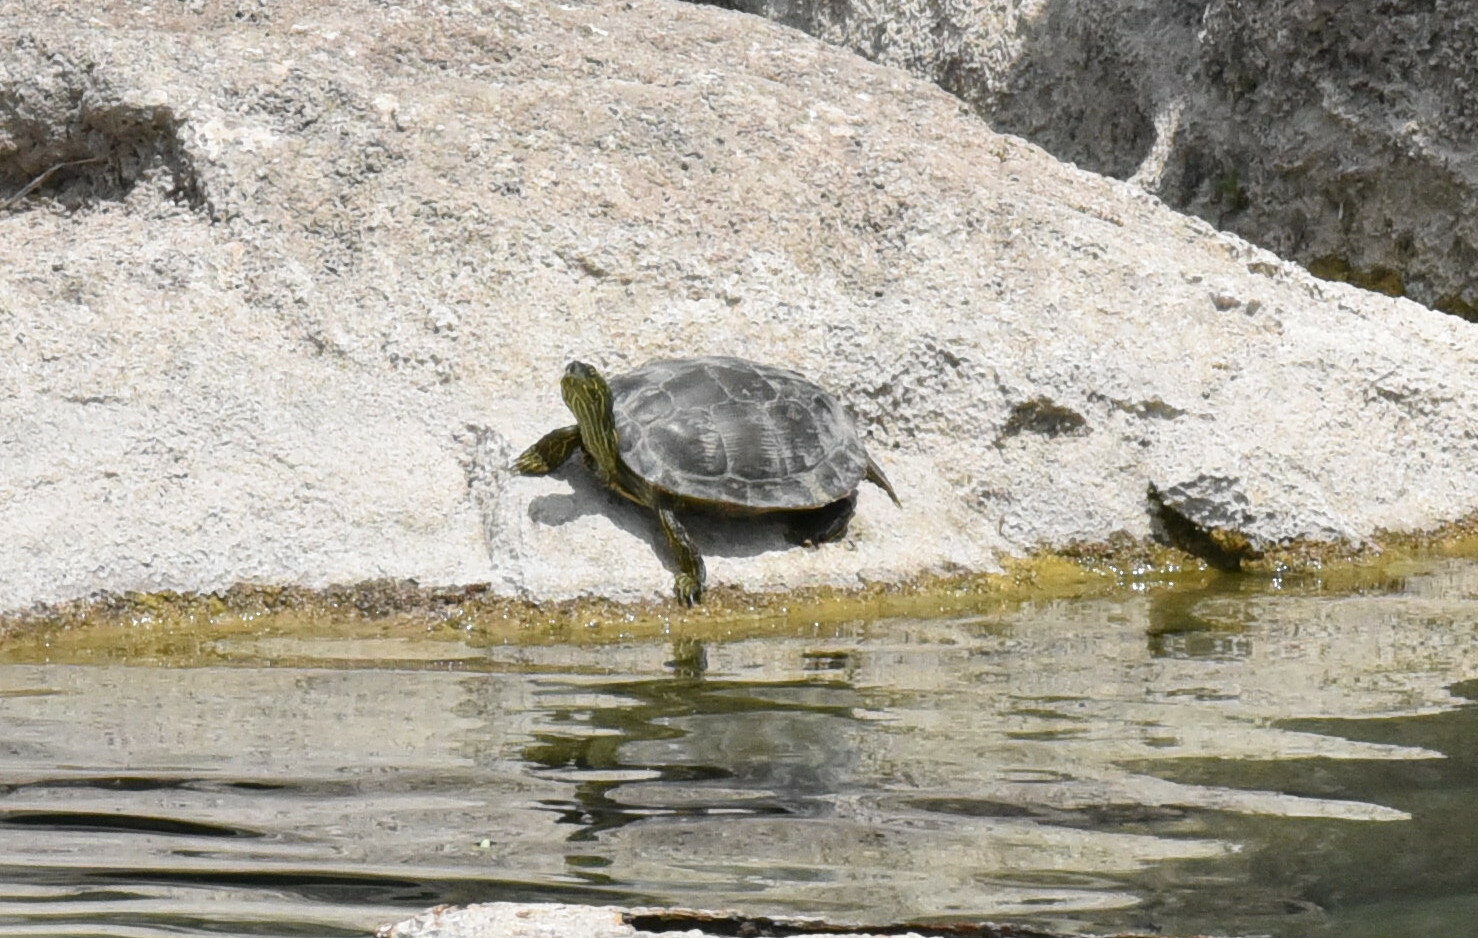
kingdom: Animalia
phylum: Chordata
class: Testudines
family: Emydidae
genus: Pseudemys
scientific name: Pseudemys texana
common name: Texas river cooter
